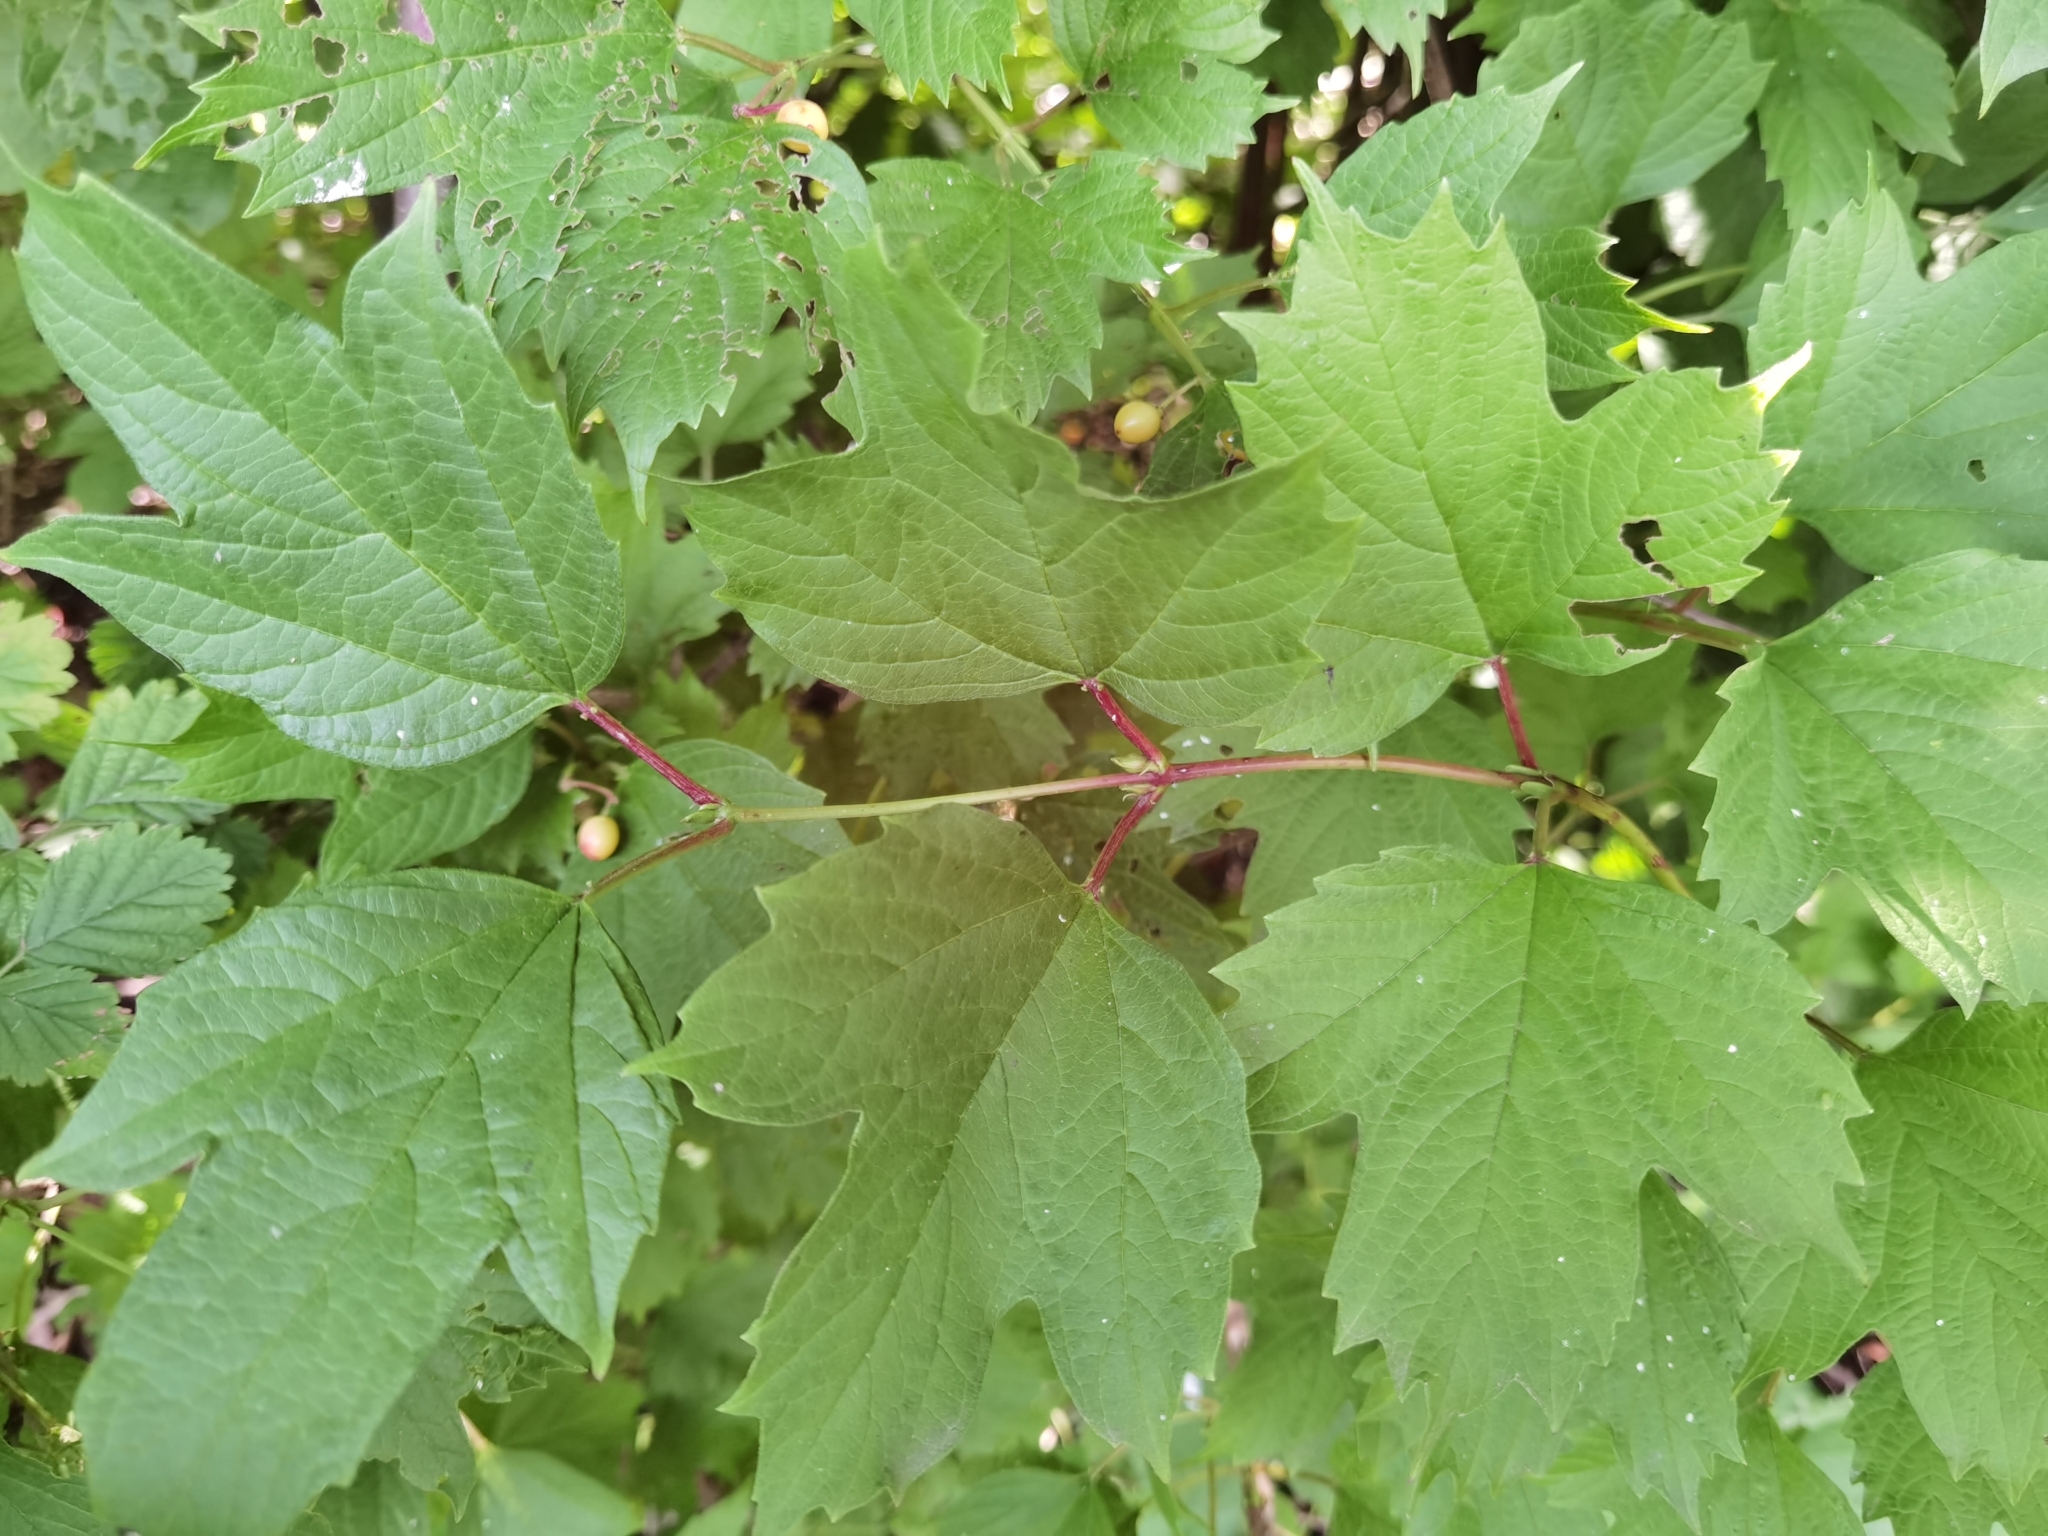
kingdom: Plantae
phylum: Tracheophyta
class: Magnoliopsida
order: Dipsacales
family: Viburnaceae
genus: Viburnum
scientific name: Viburnum opulus
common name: Guelder-rose
